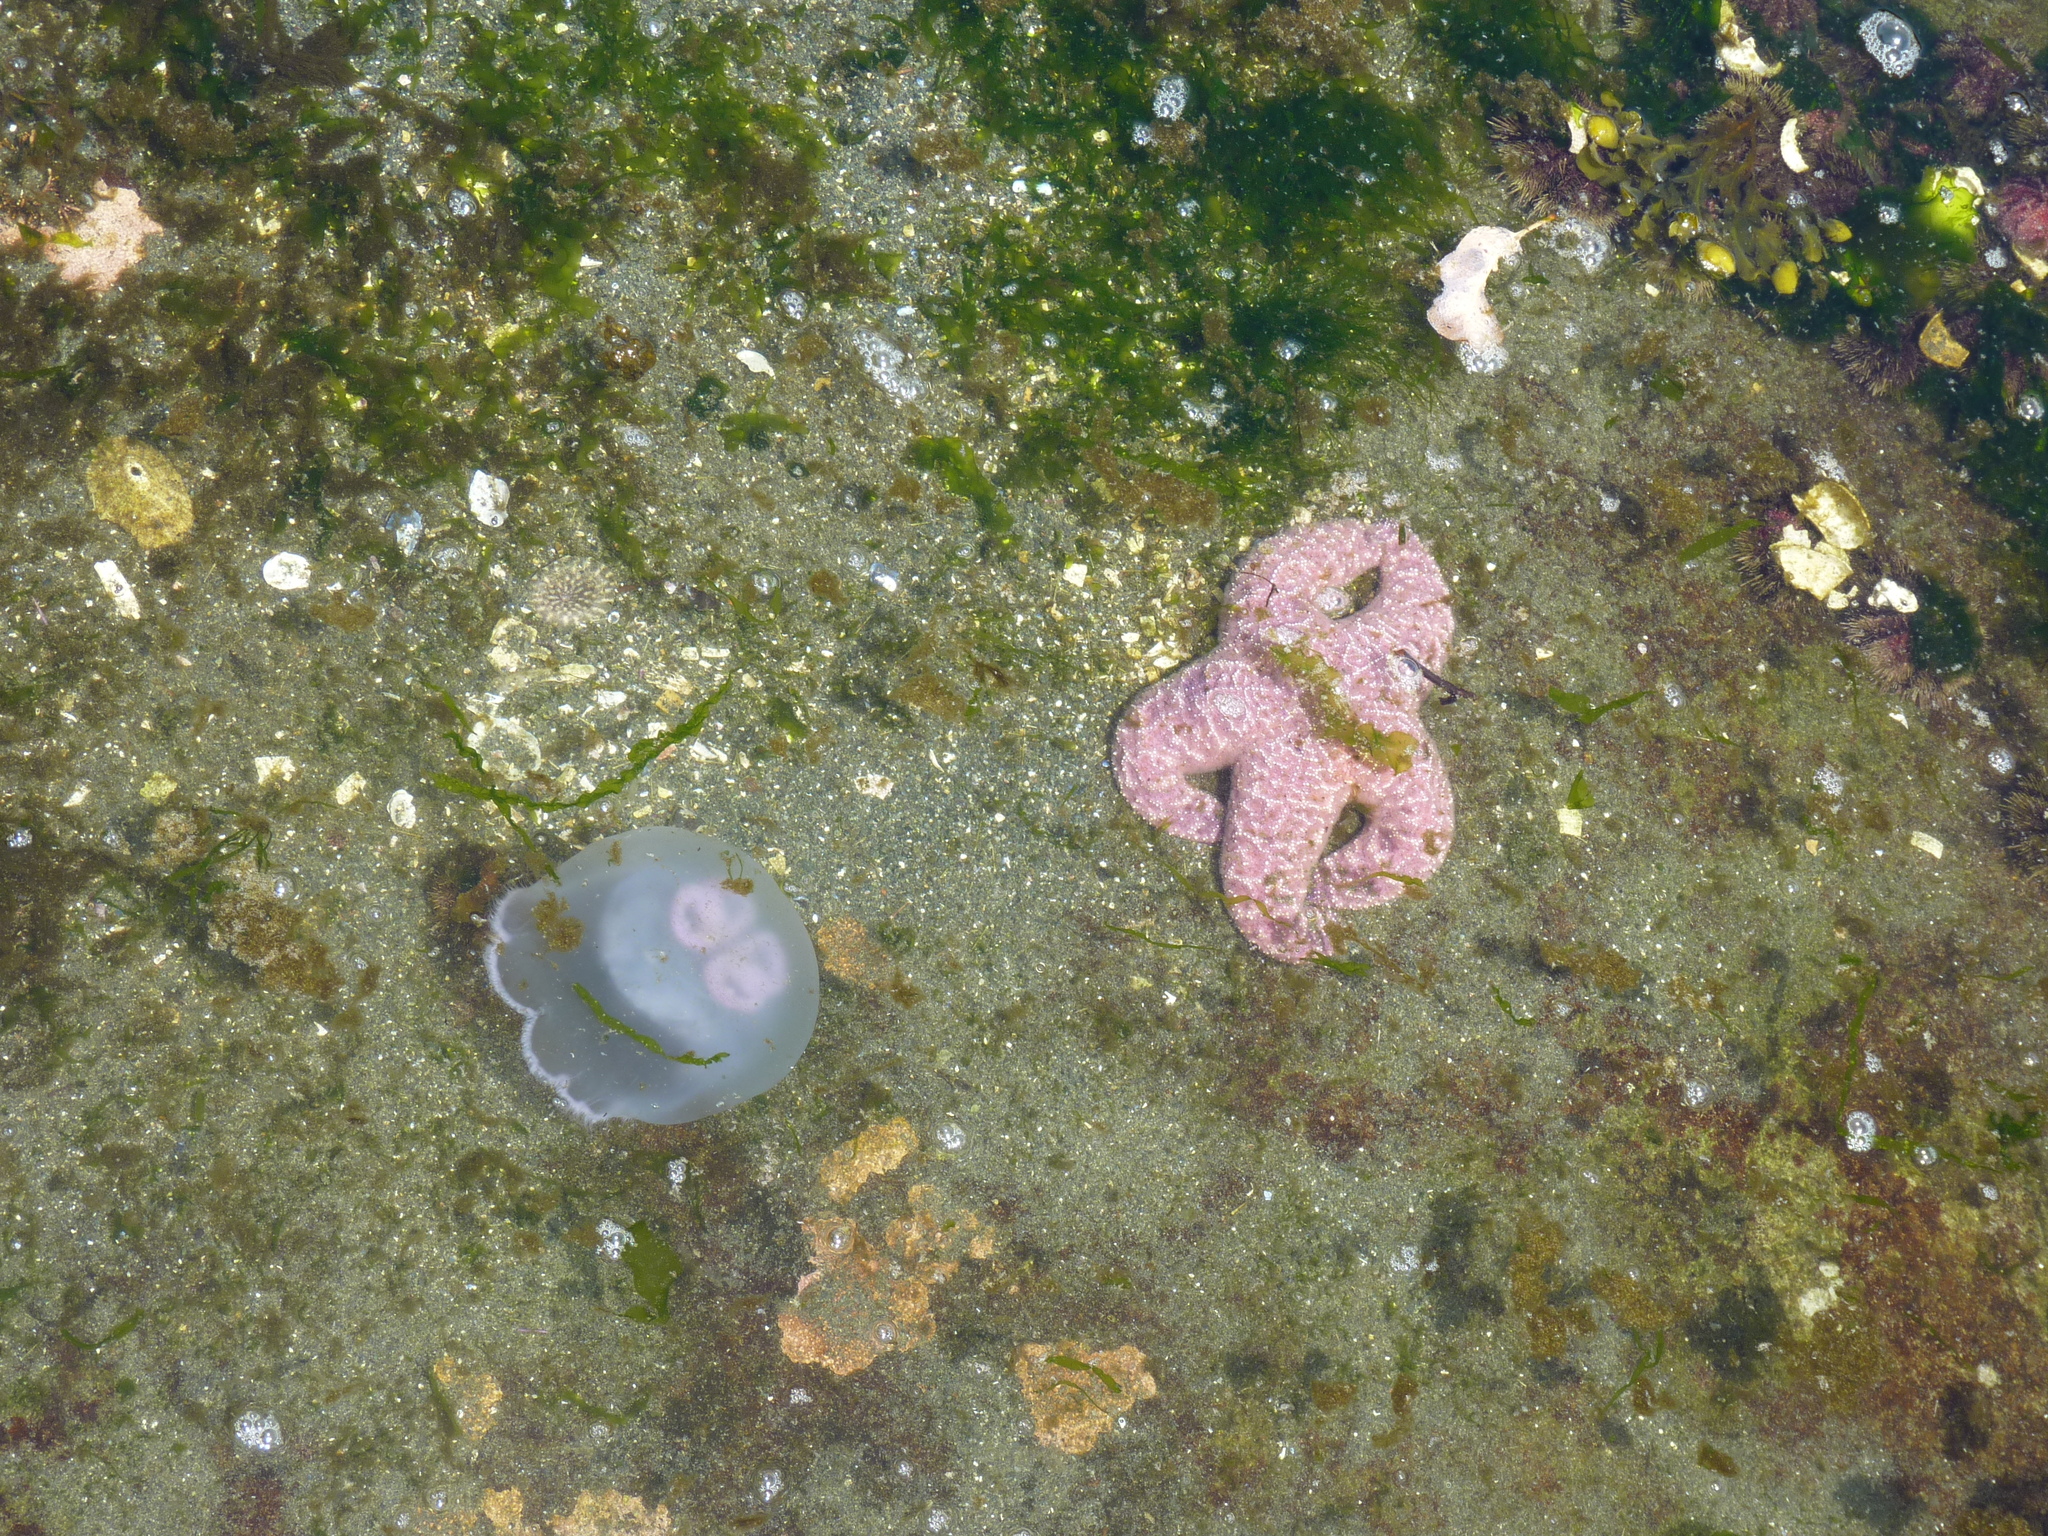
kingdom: Animalia
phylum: Cnidaria
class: Scyphozoa
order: Semaeostomeae
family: Ulmaridae
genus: Aurelia
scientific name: Aurelia labiata
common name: Pacific moon jelly
